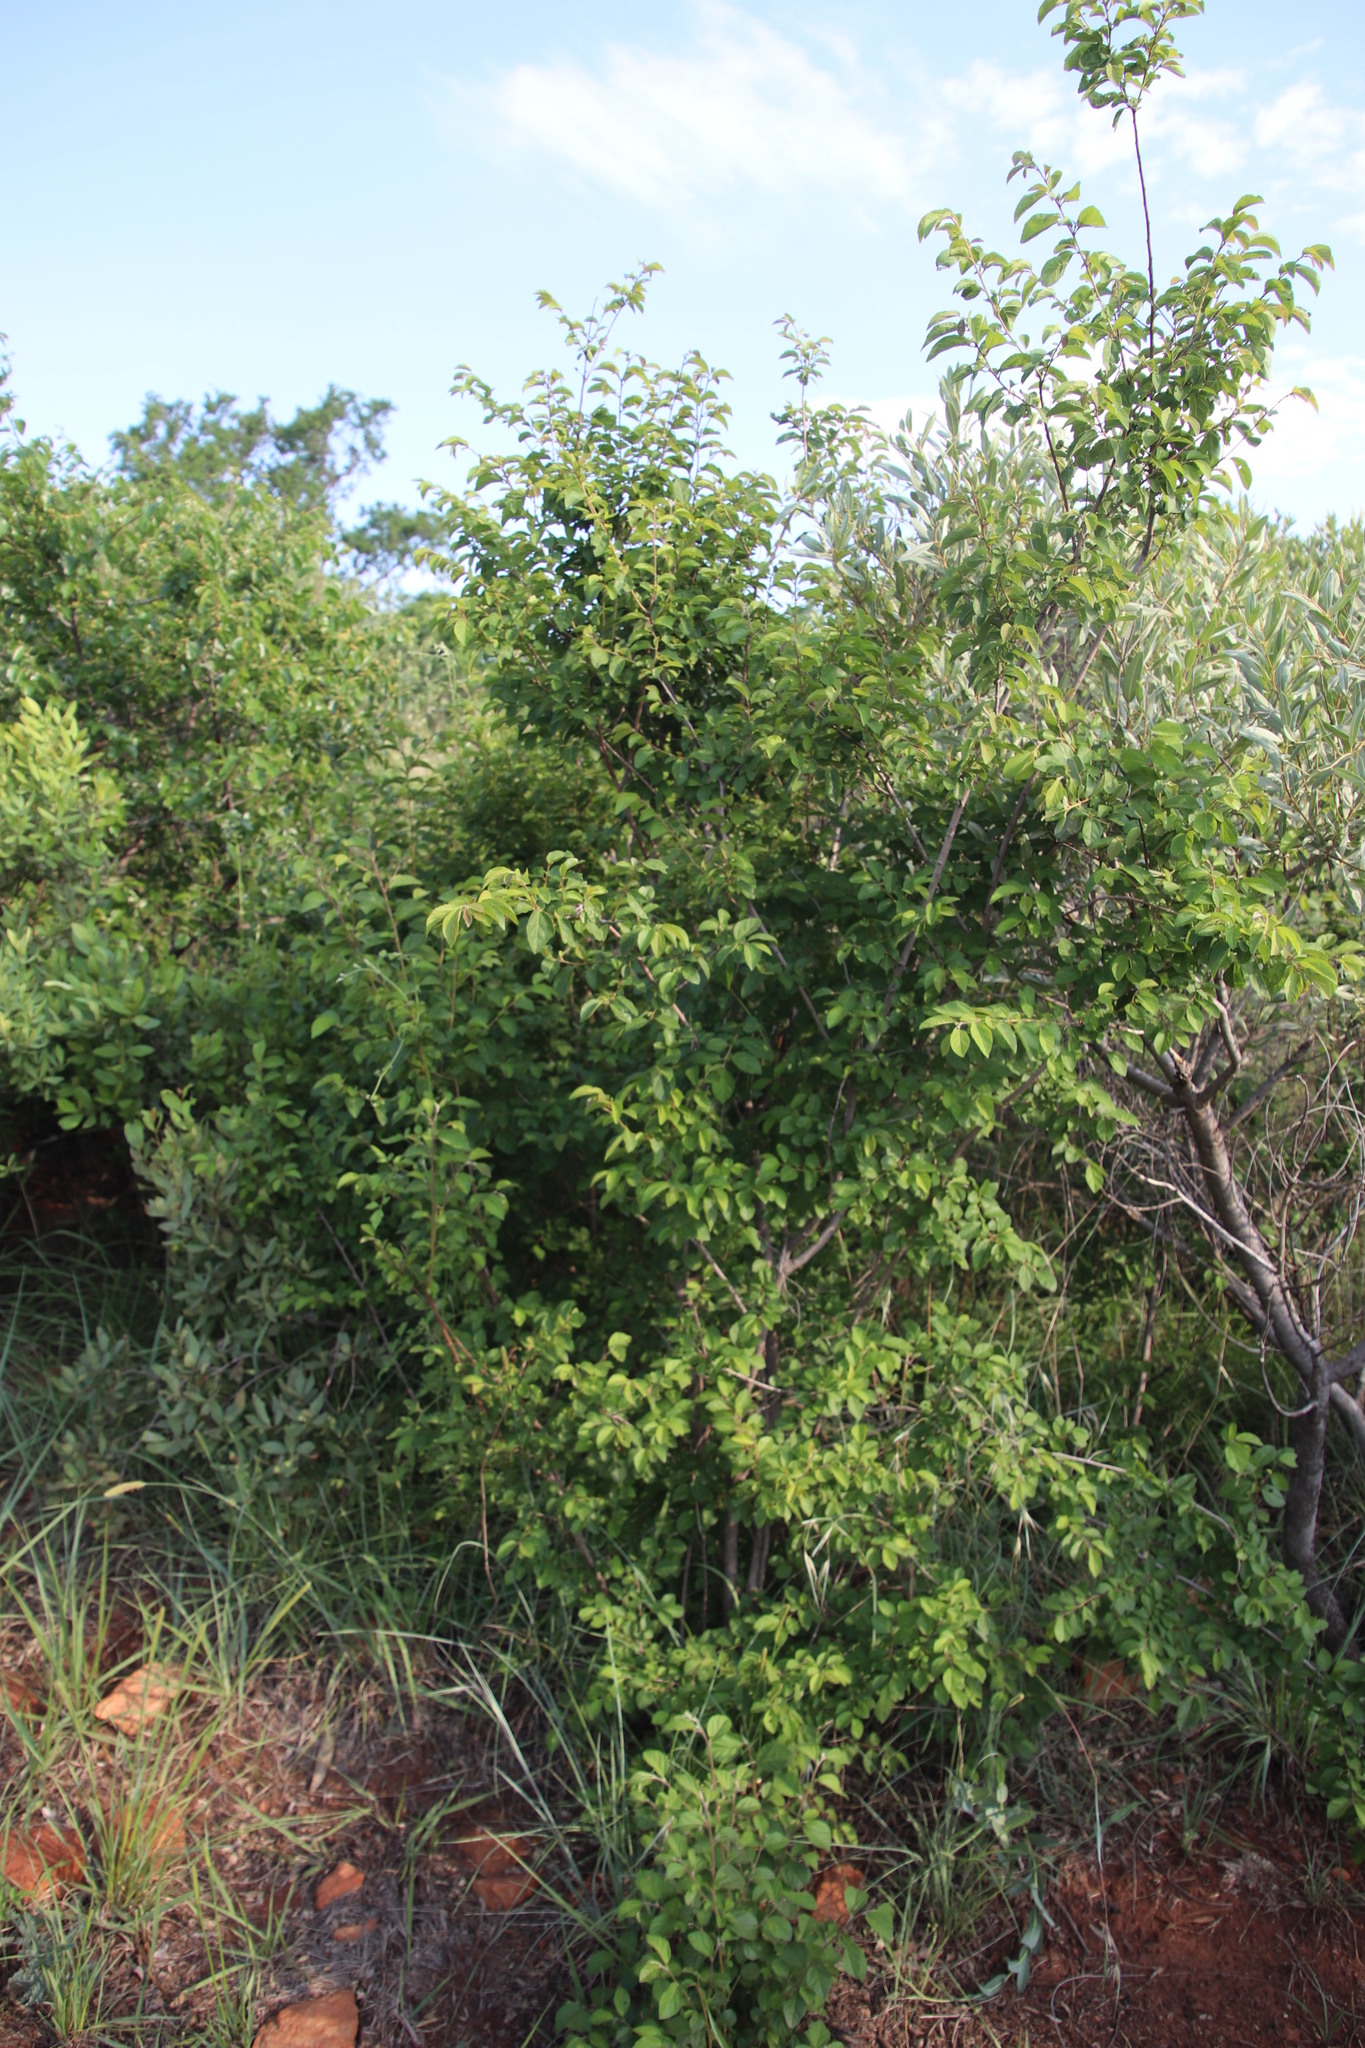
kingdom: Plantae
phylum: Tracheophyta
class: Magnoliopsida
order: Malvales
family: Malvaceae
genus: Grewia
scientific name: Grewia occidentalis
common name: Crossberry
